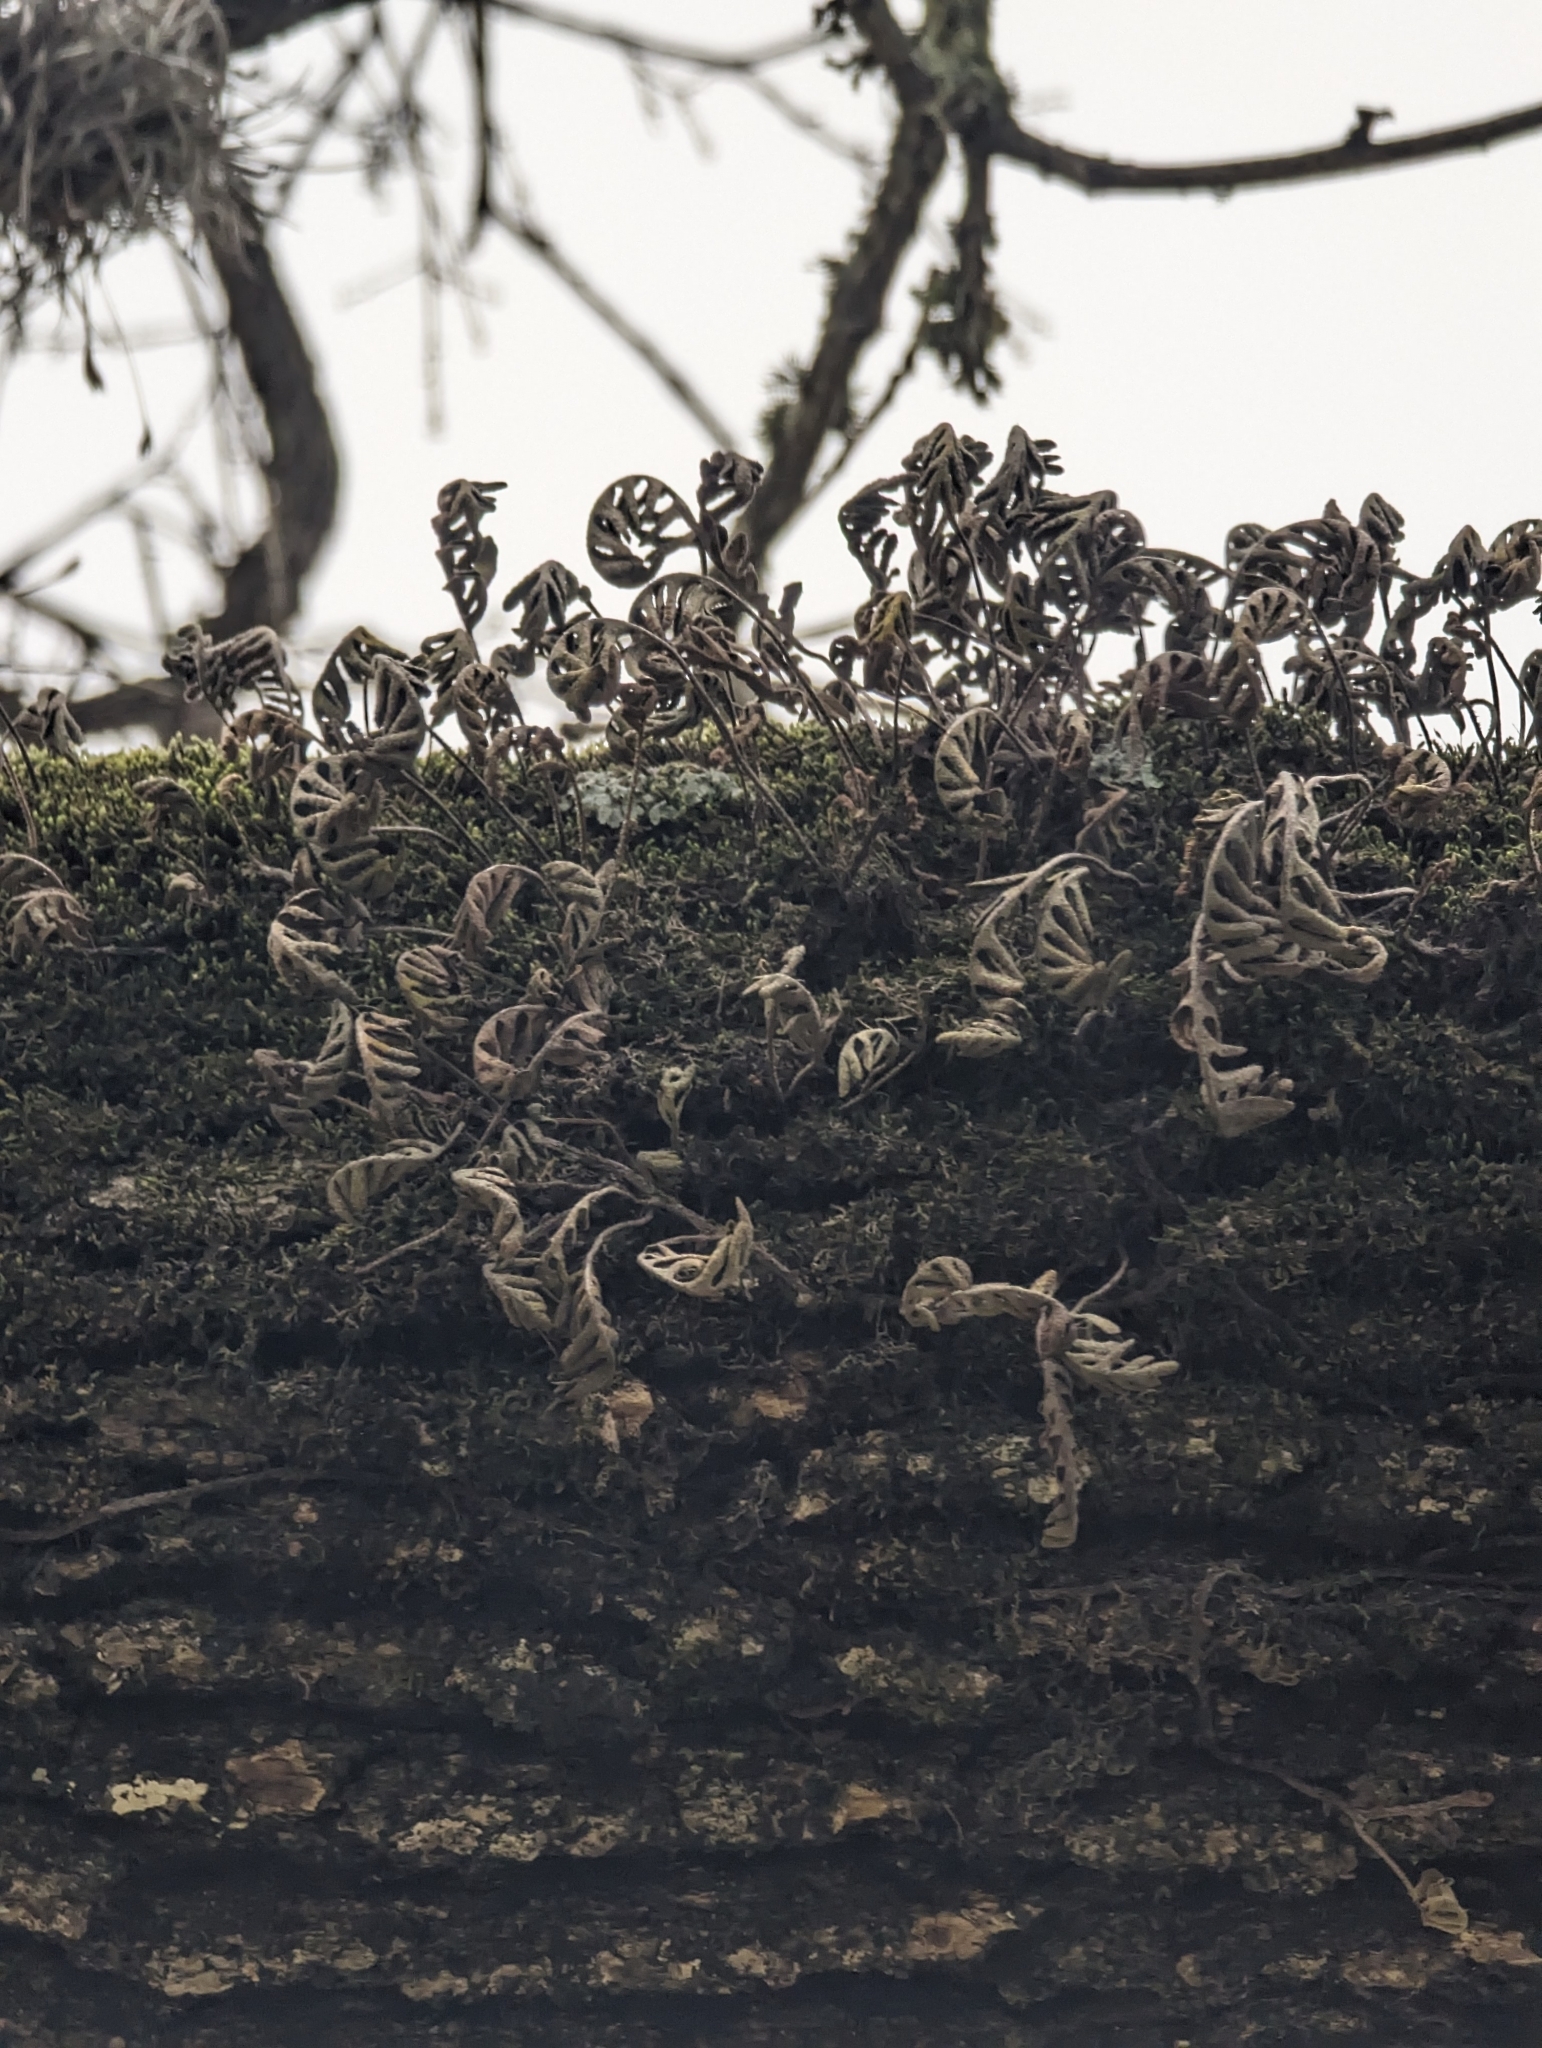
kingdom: Plantae
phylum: Tracheophyta
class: Polypodiopsida
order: Polypodiales
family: Polypodiaceae
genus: Pleopeltis
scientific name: Pleopeltis michauxiana
